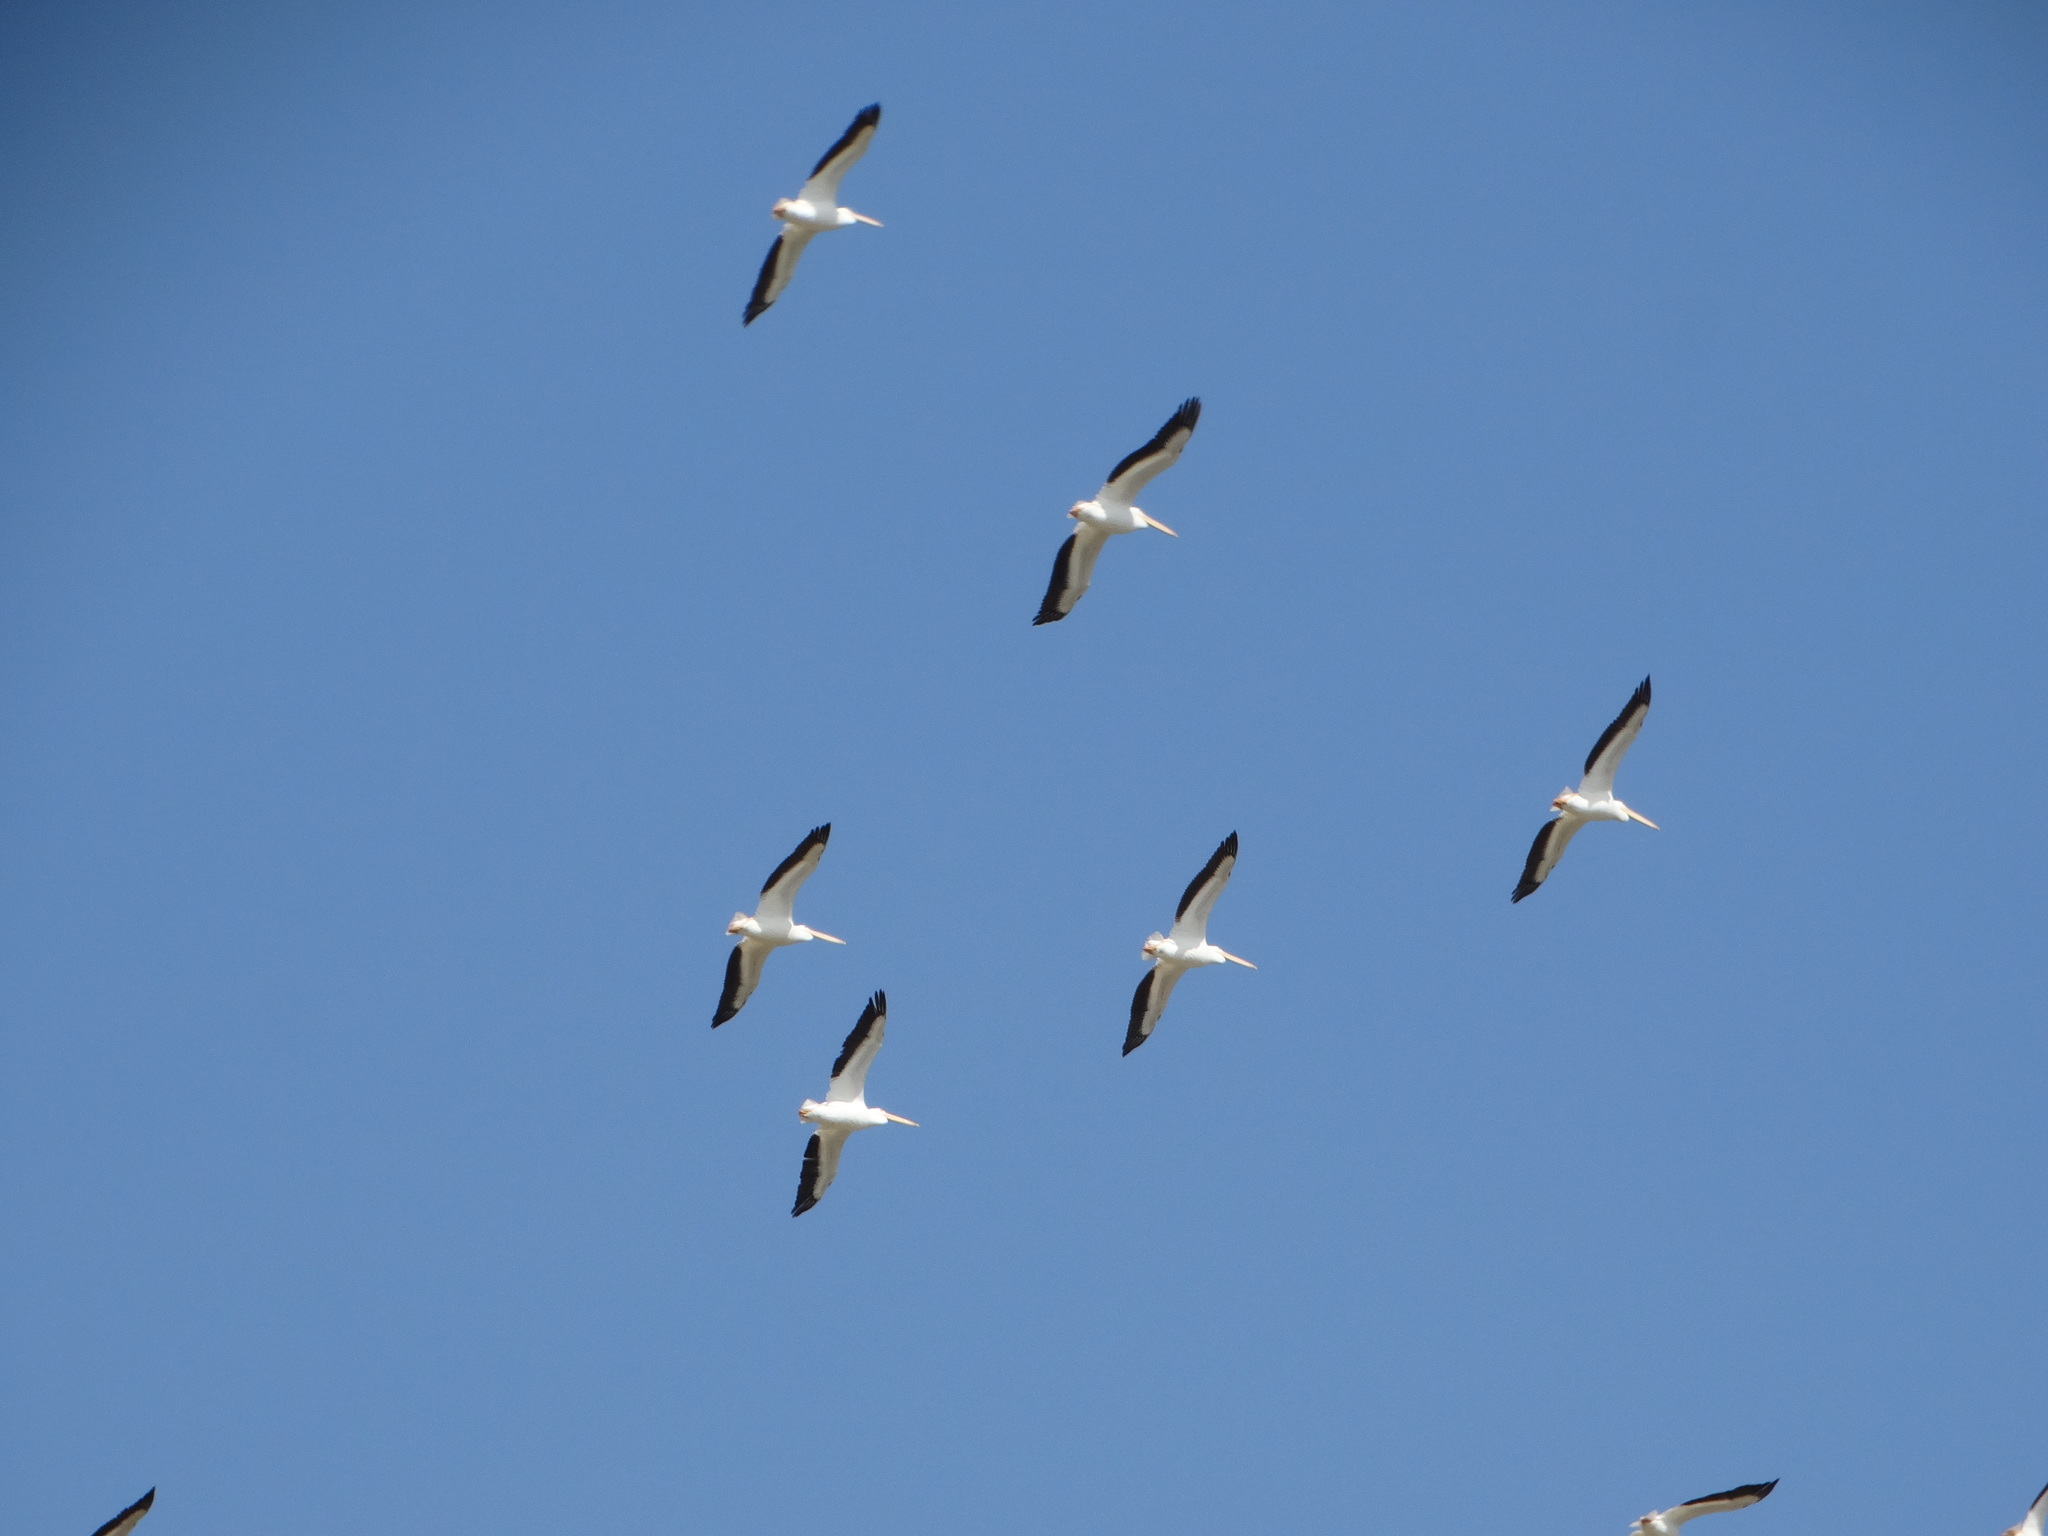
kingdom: Animalia
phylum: Chordata
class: Aves
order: Pelecaniformes
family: Pelecanidae
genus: Pelecanus
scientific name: Pelecanus erythrorhynchos
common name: American white pelican
